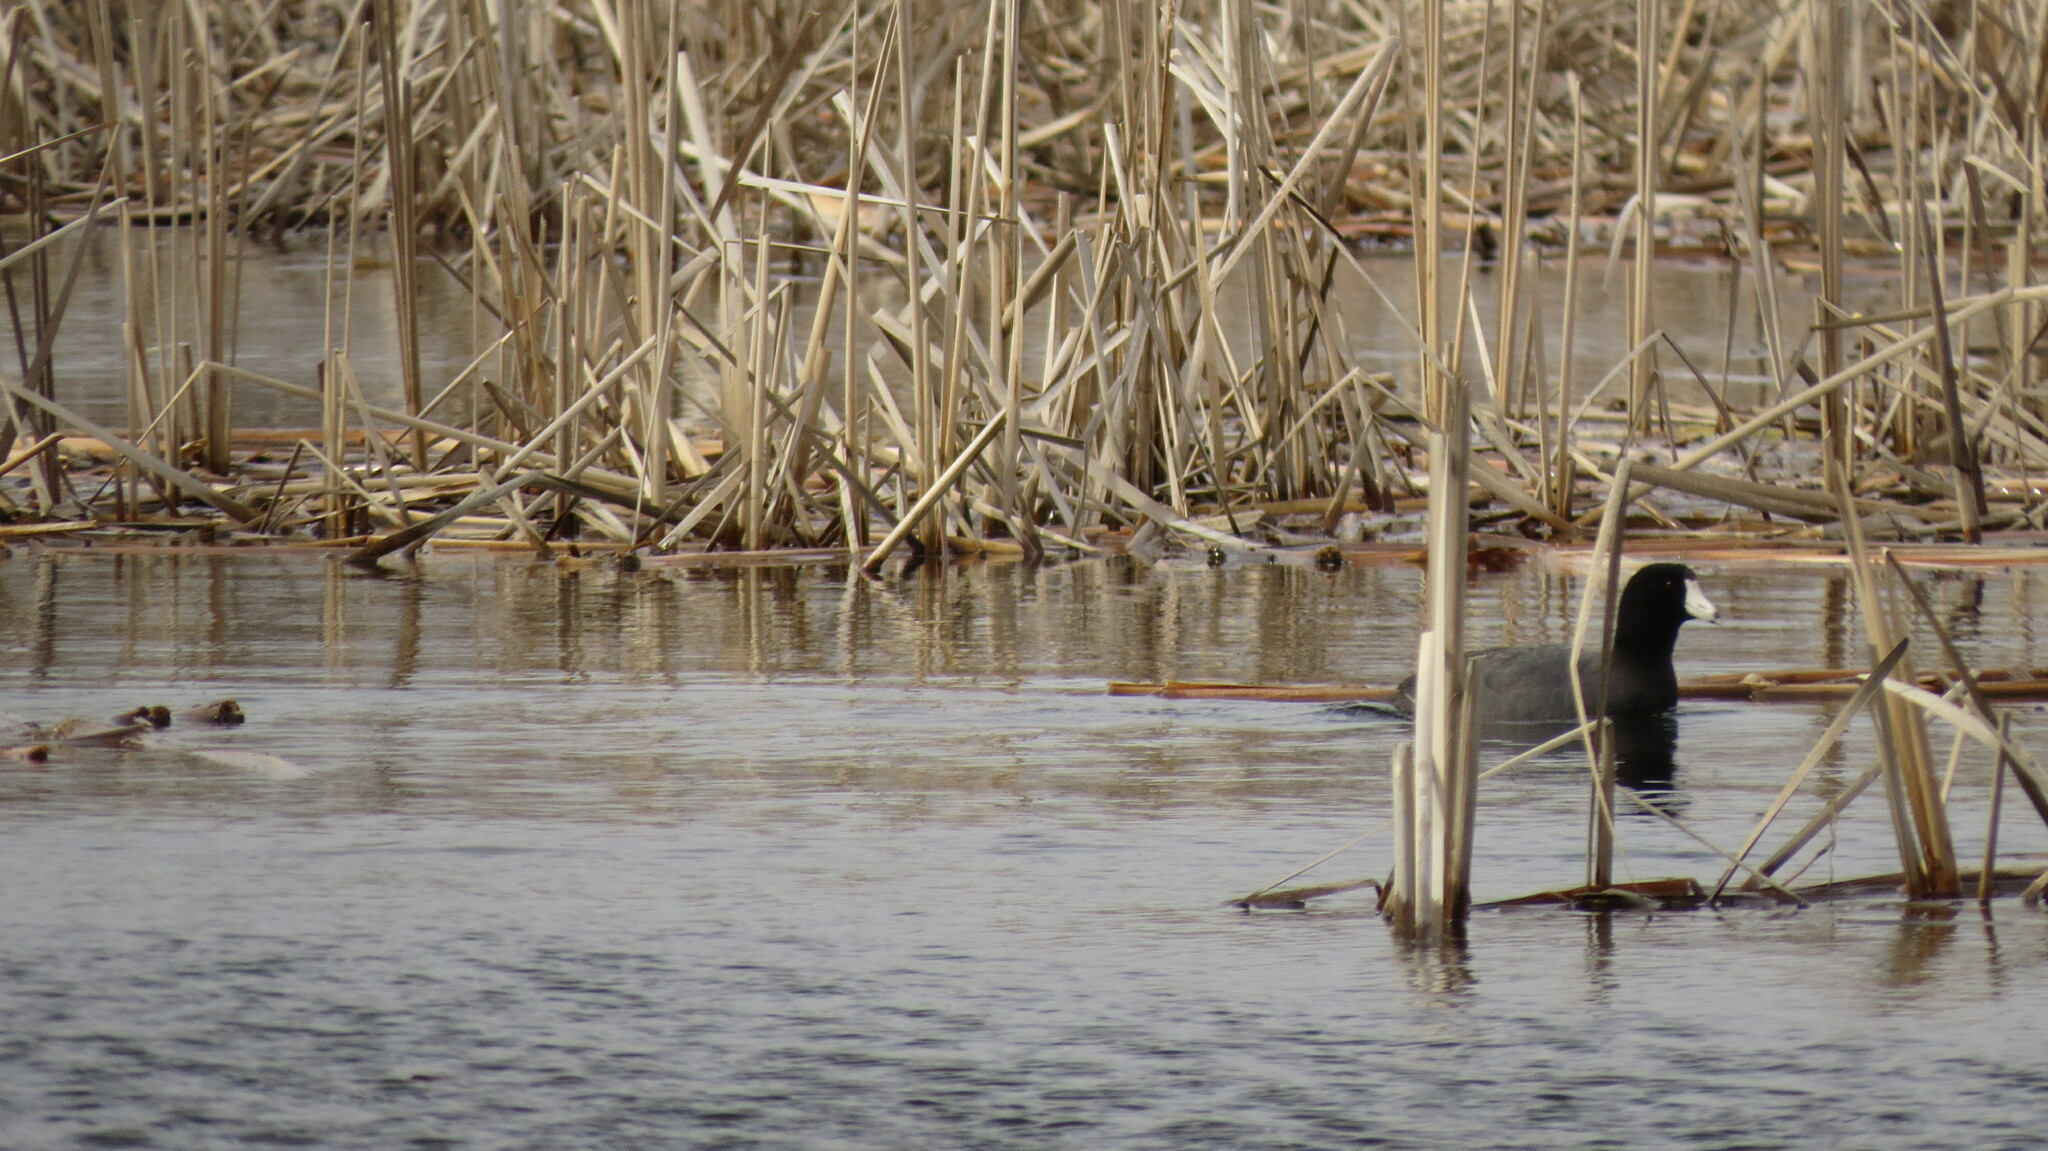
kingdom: Animalia
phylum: Chordata
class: Aves
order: Gruiformes
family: Rallidae
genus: Fulica
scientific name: Fulica americana
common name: American coot
